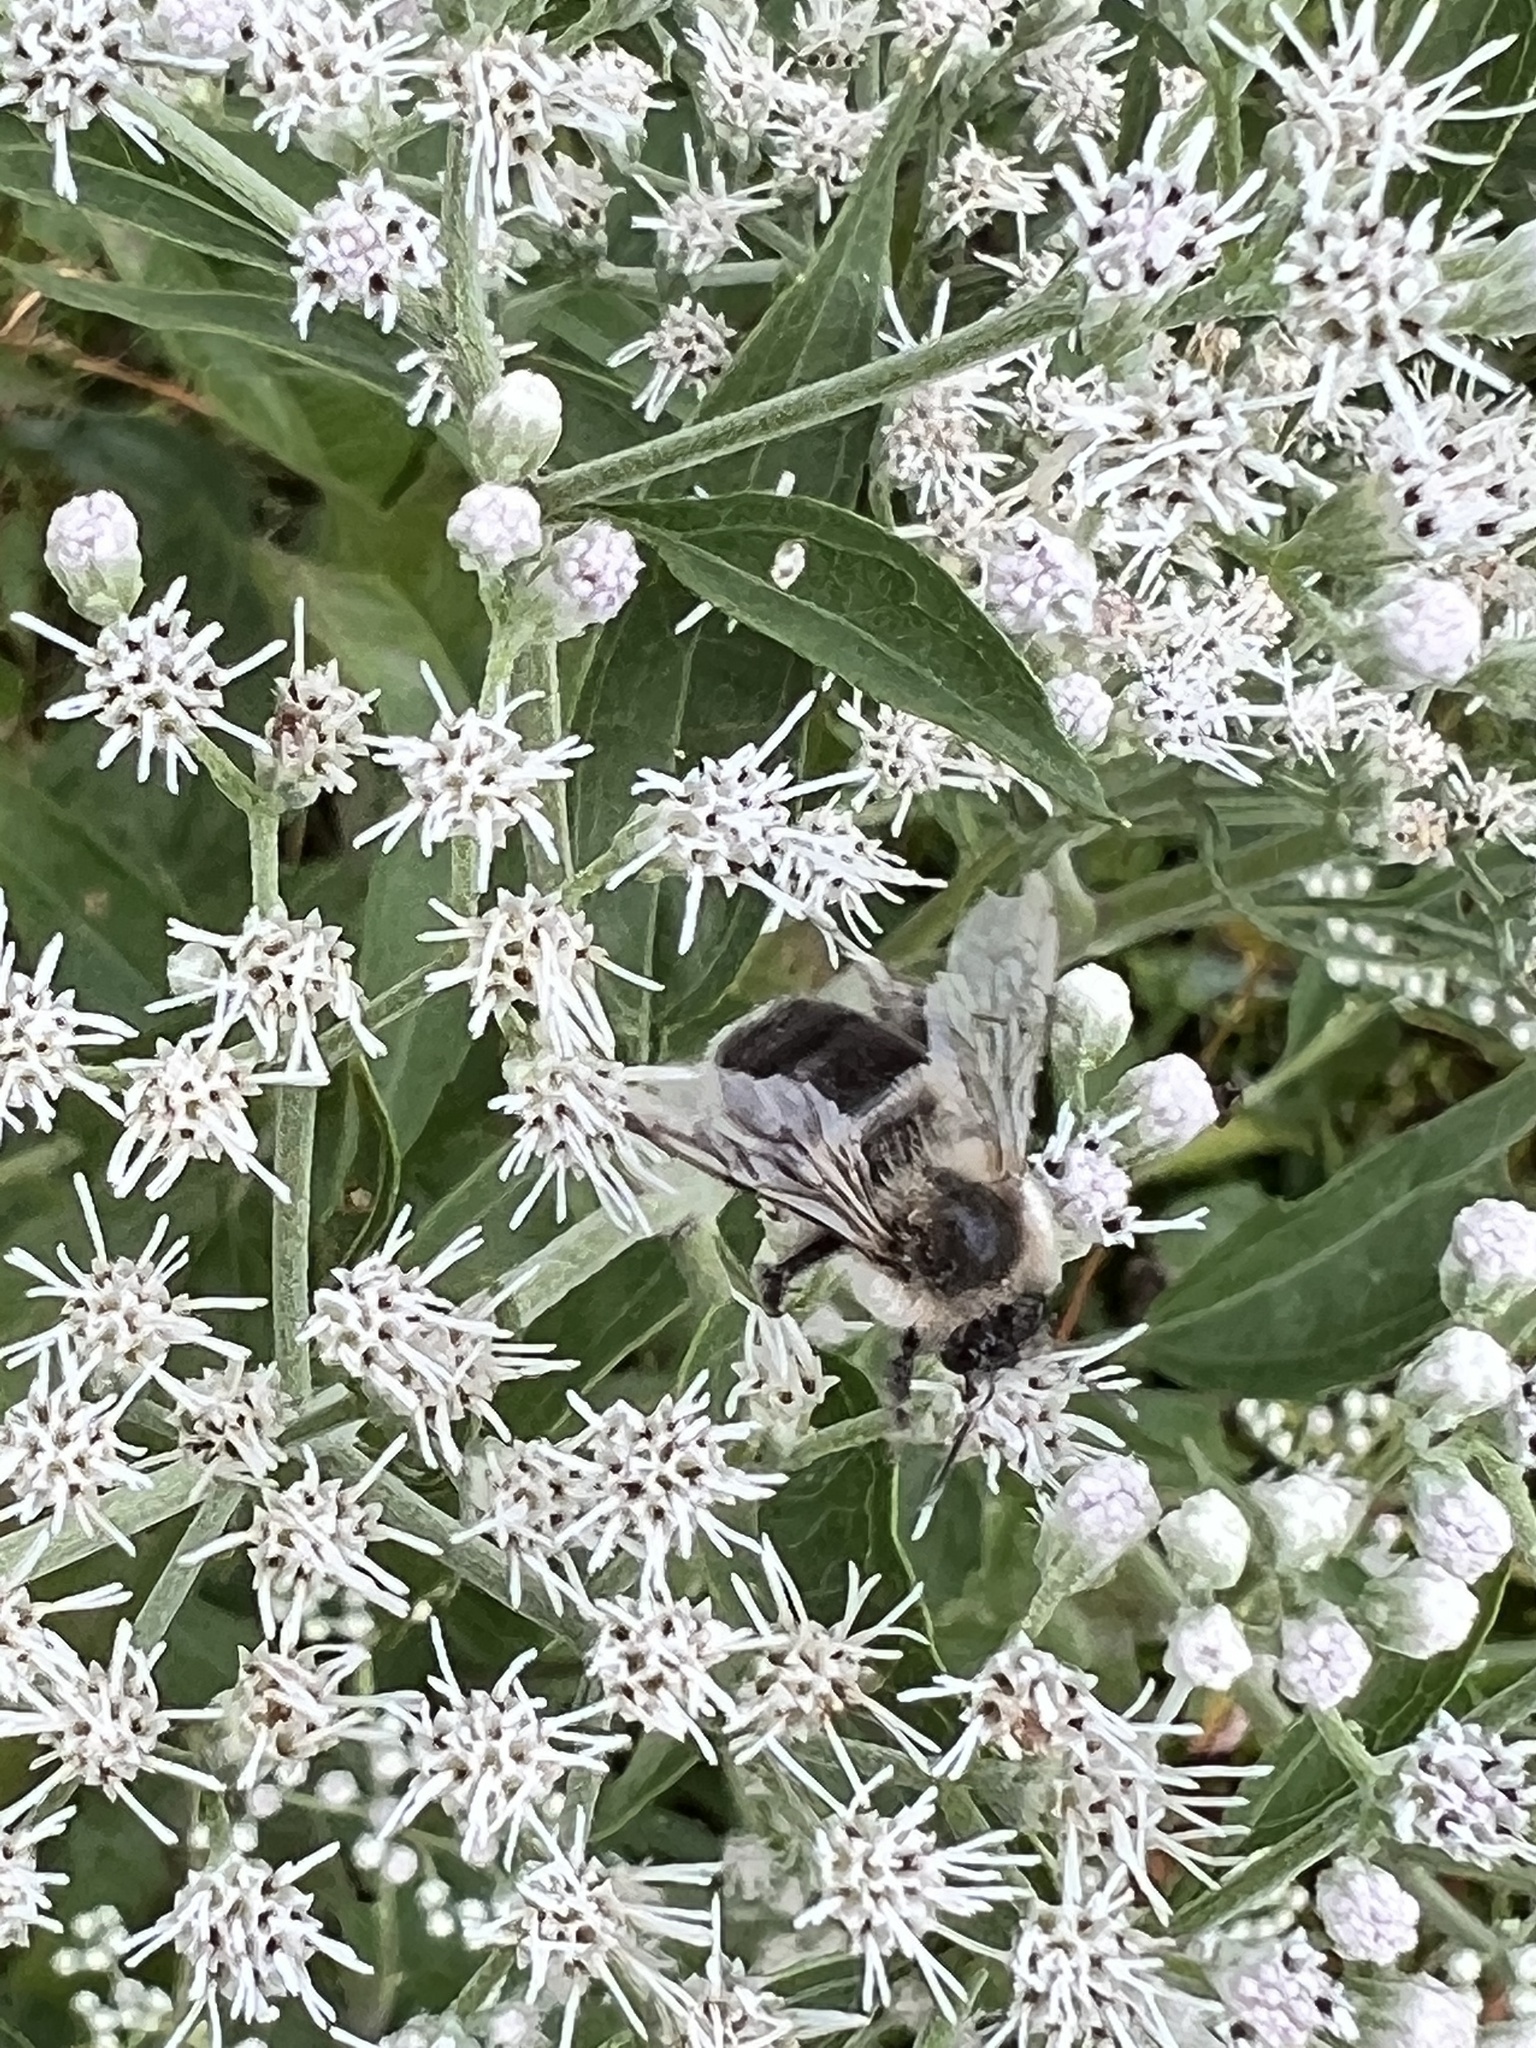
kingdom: Animalia
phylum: Arthropoda
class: Insecta
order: Hymenoptera
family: Apidae
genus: Bombus
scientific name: Bombus impatiens
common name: Common eastern bumble bee
